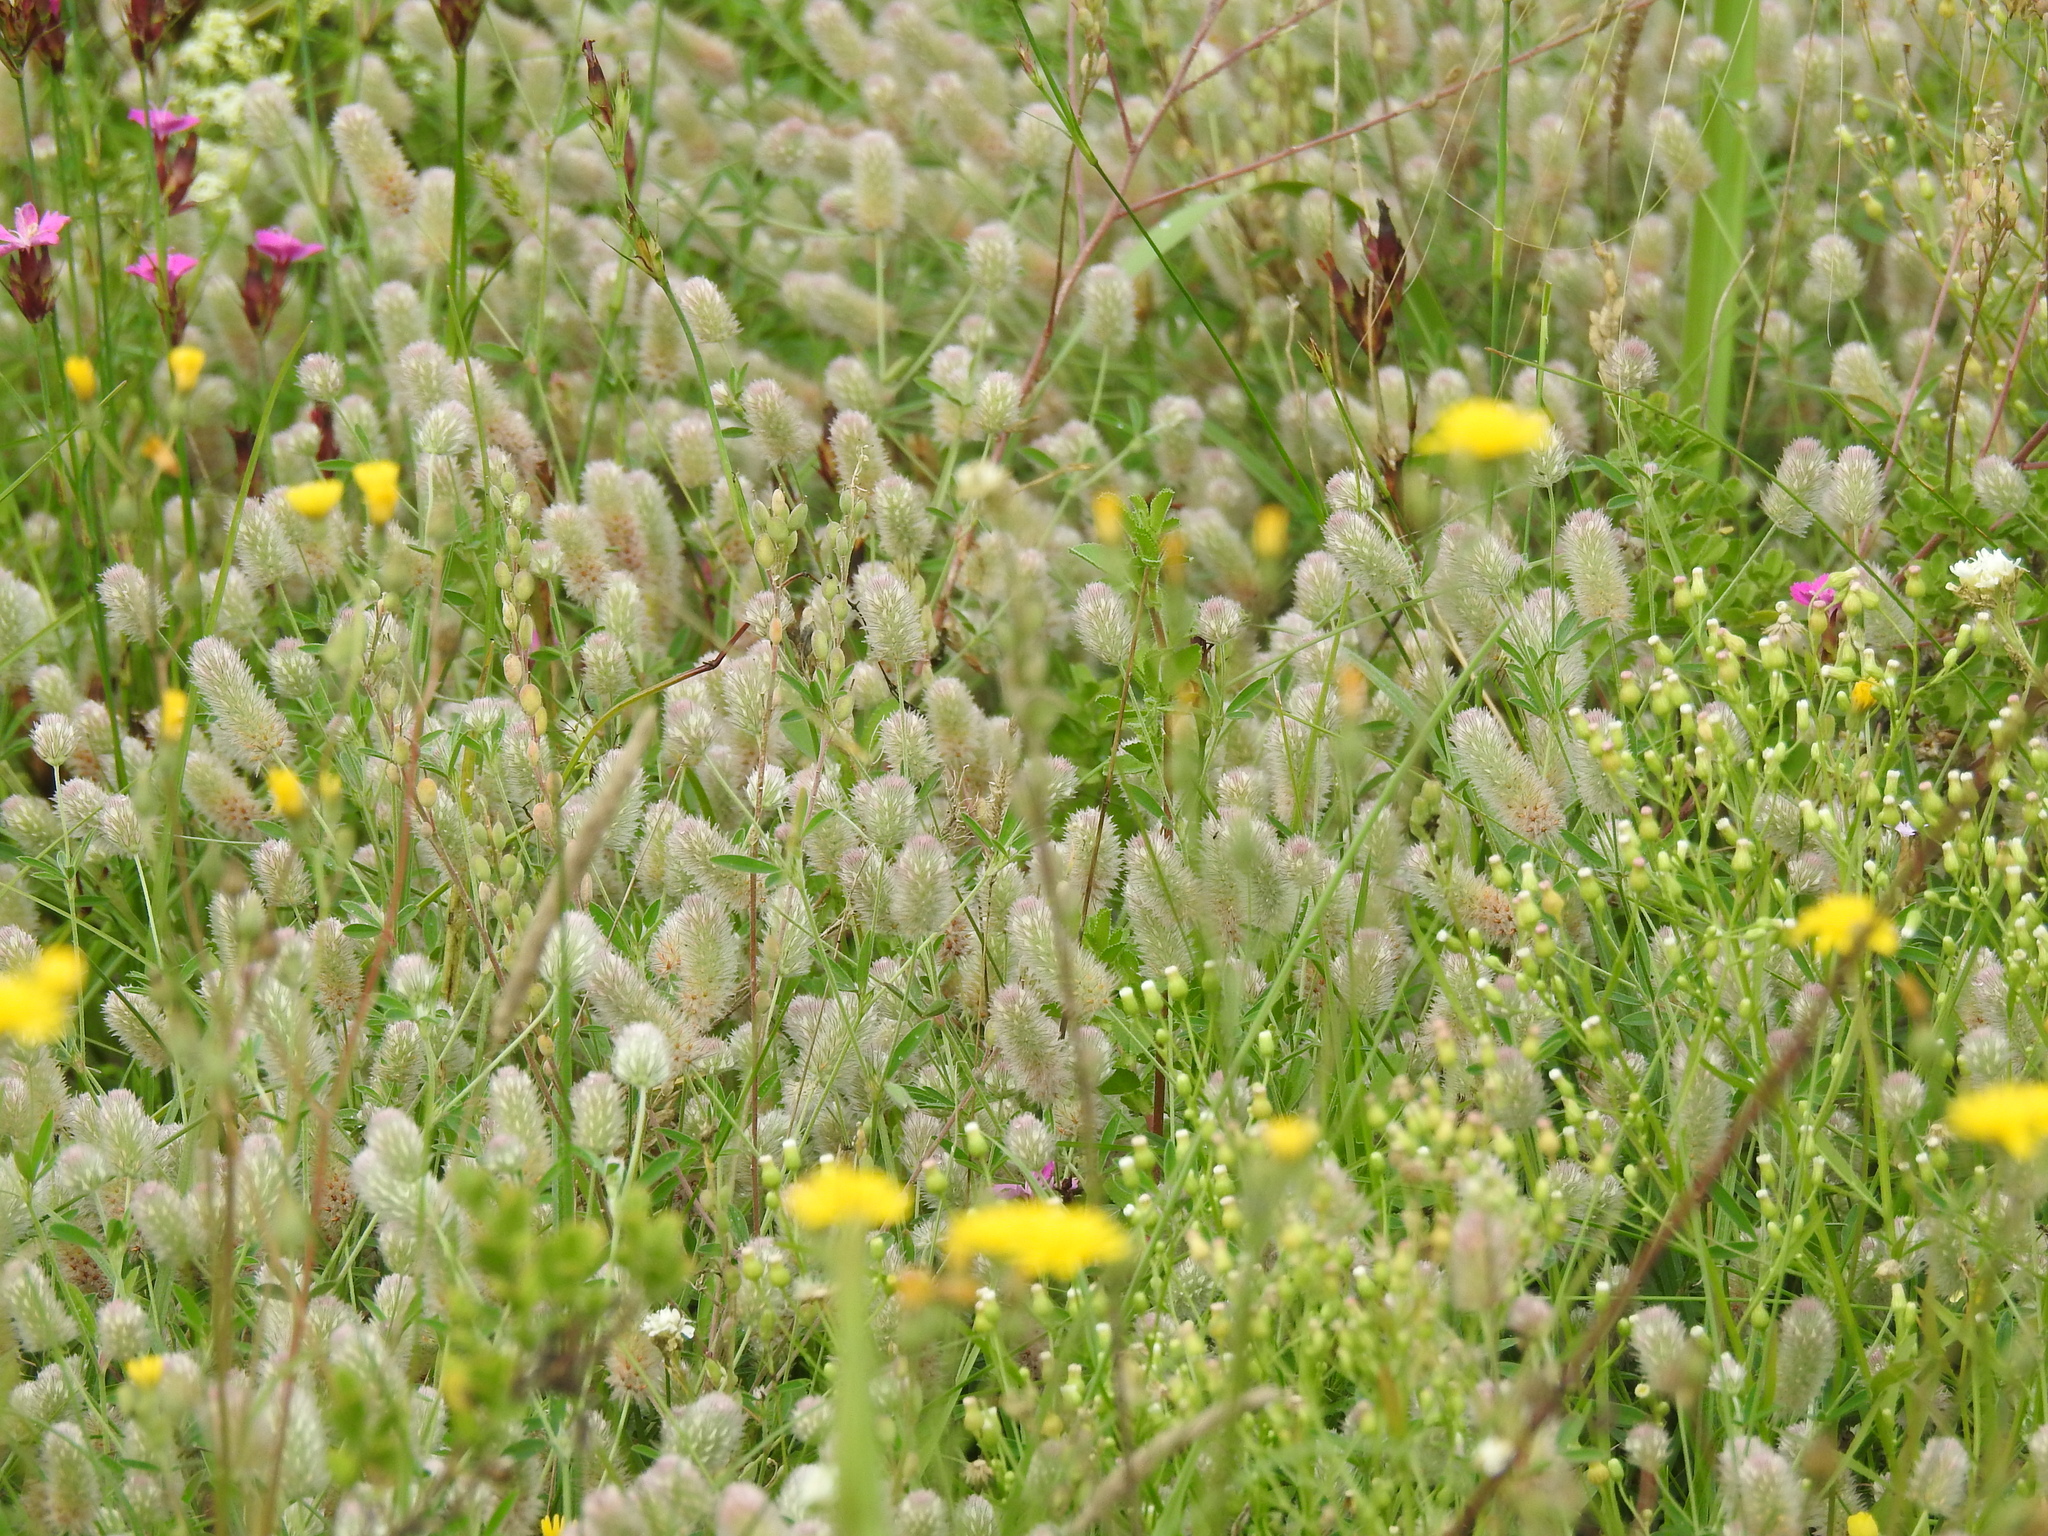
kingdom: Plantae
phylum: Tracheophyta
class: Magnoliopsida
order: Fabales
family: Fabaceae
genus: Trifolium
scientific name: Trifolium arvense
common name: Hare's-foot clover
